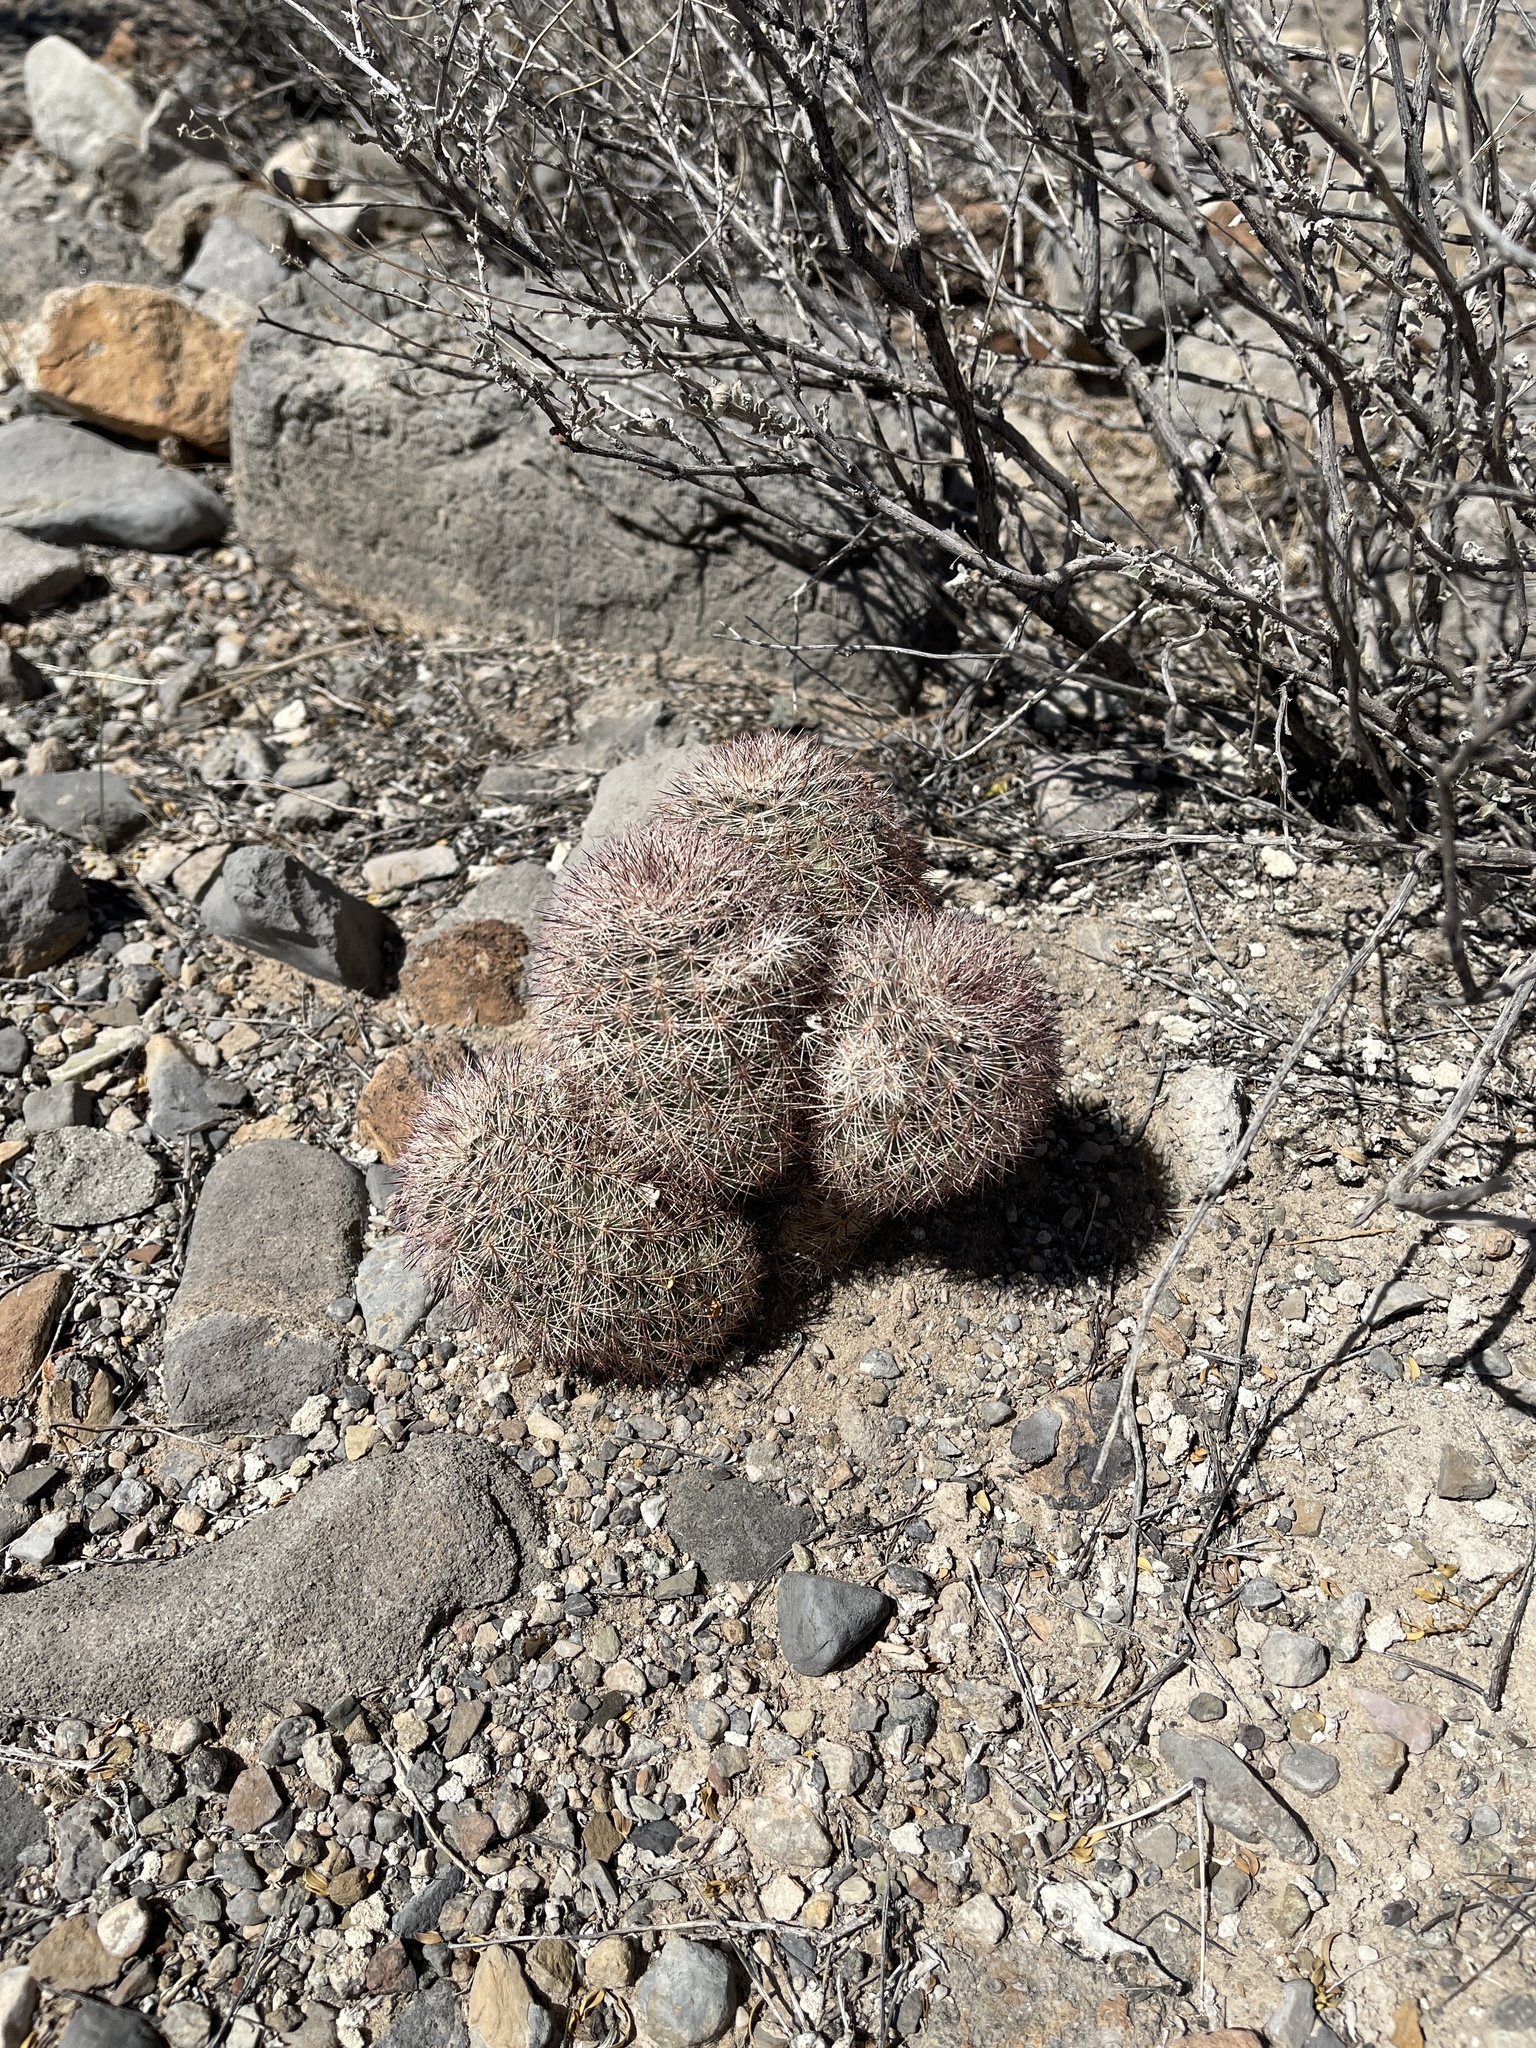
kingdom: Plantae
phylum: Tracheophyta
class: Magnoliopsida
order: Caryophyllales
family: Cactaceae
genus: Echinocereus
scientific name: Echinocereus dasyacanthus
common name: Spiny hedgehog cactus
